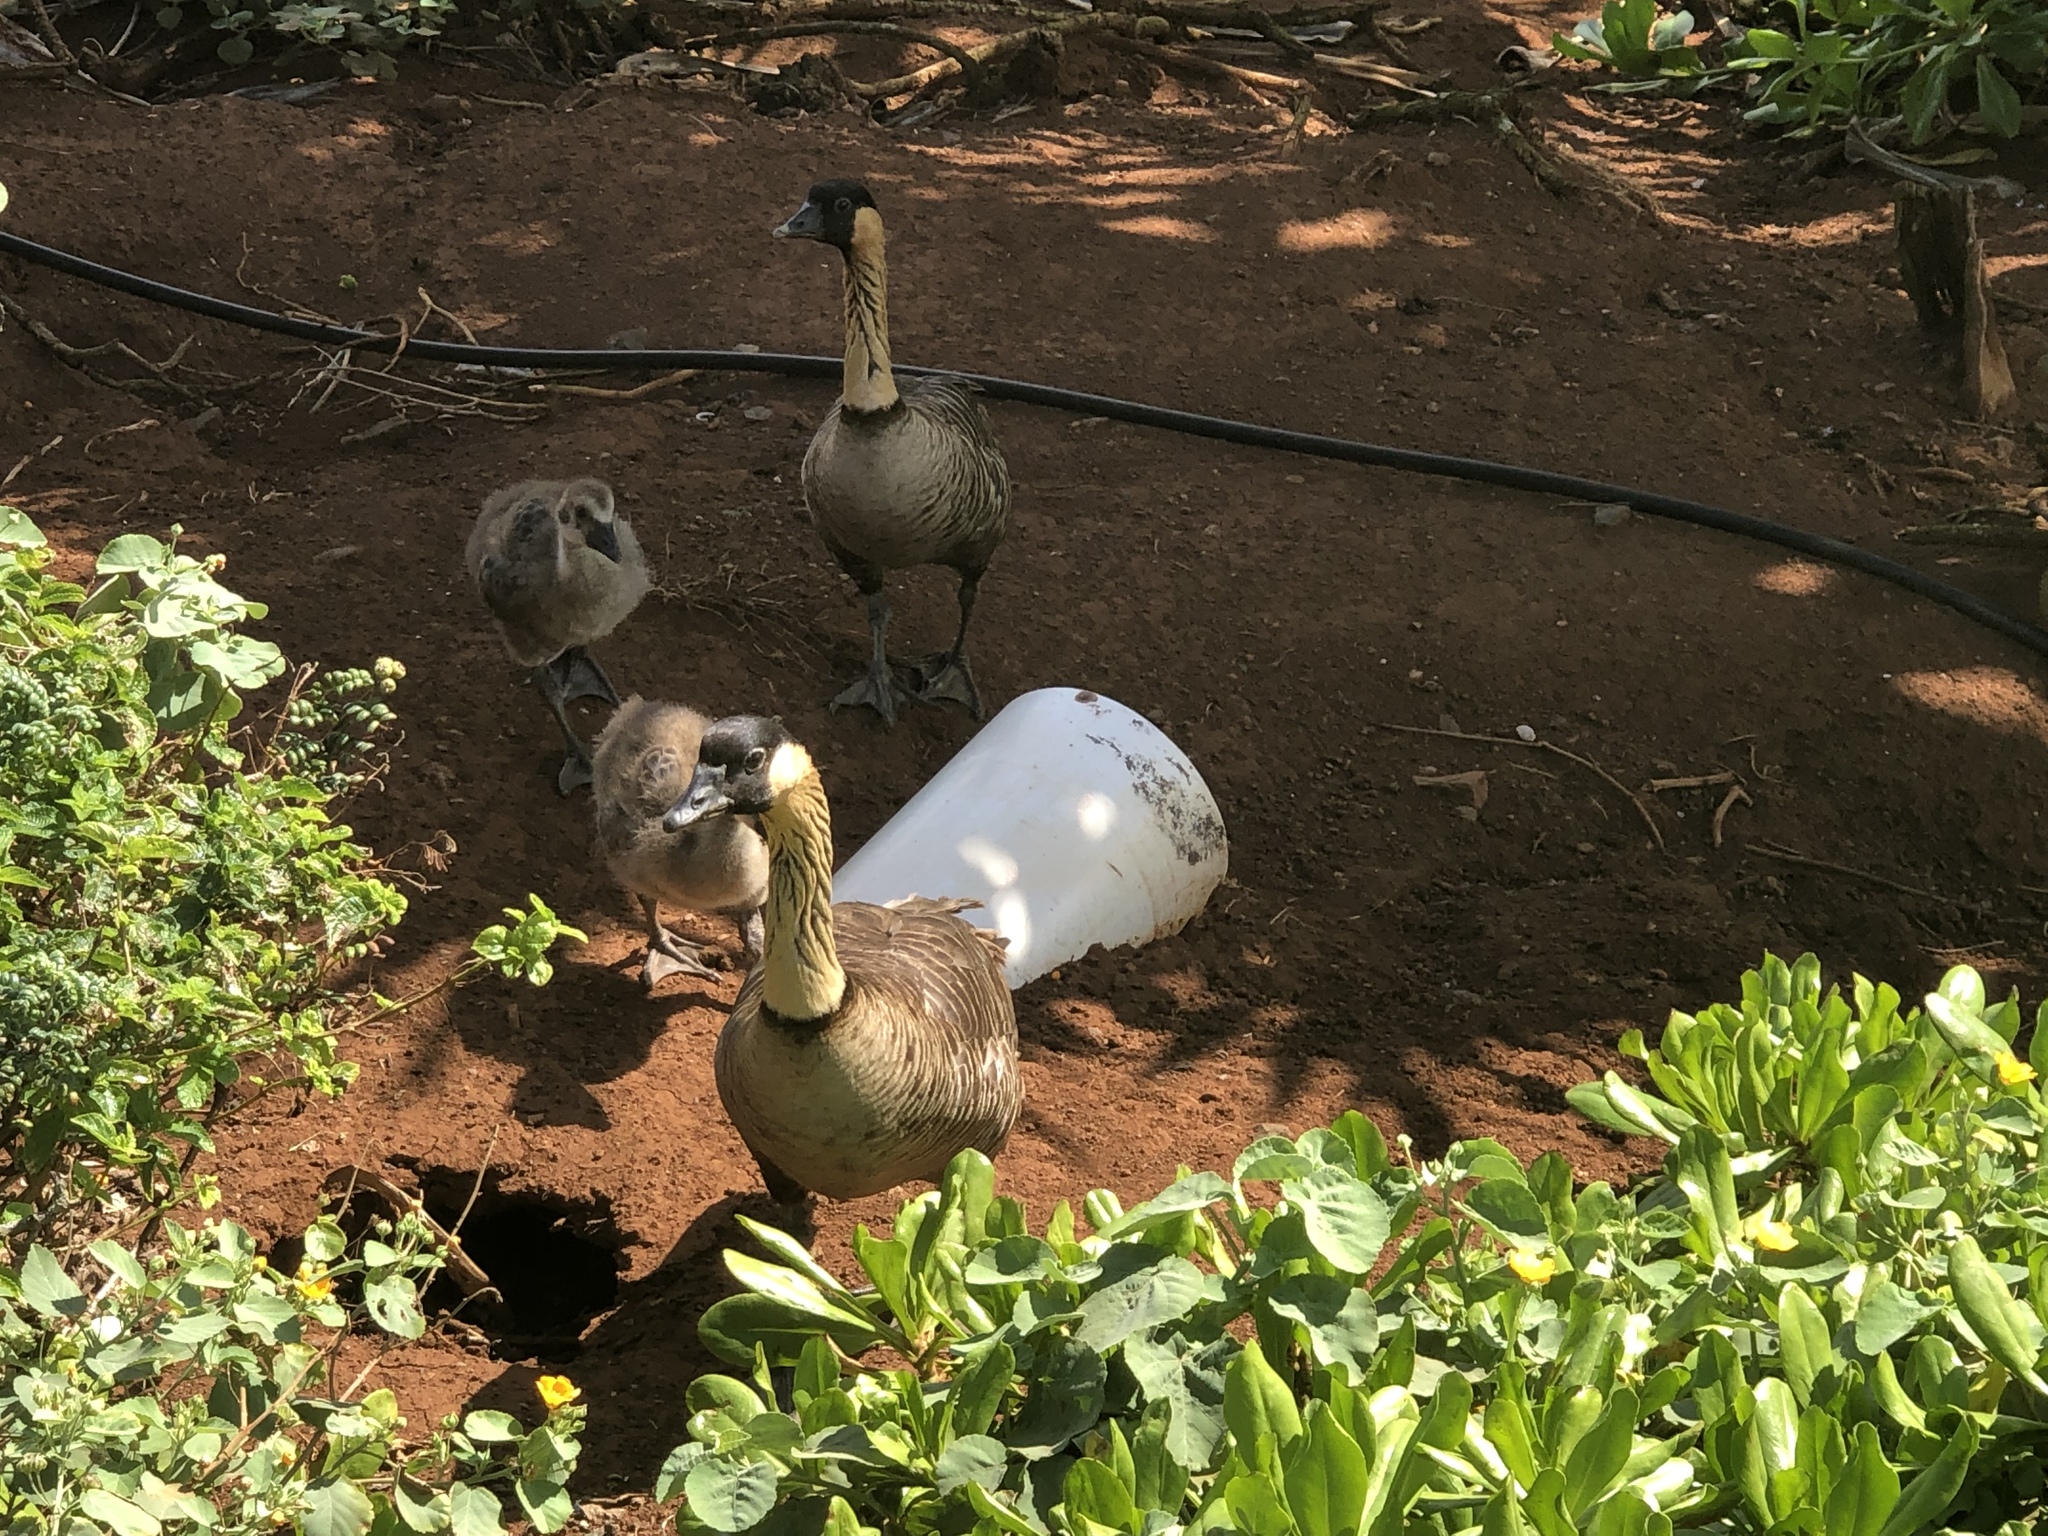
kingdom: Animalia
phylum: Chordata
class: Aves
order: Anseriformes
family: Anatidae
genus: Branta
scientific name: Branta sandvicensis
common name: Nene
